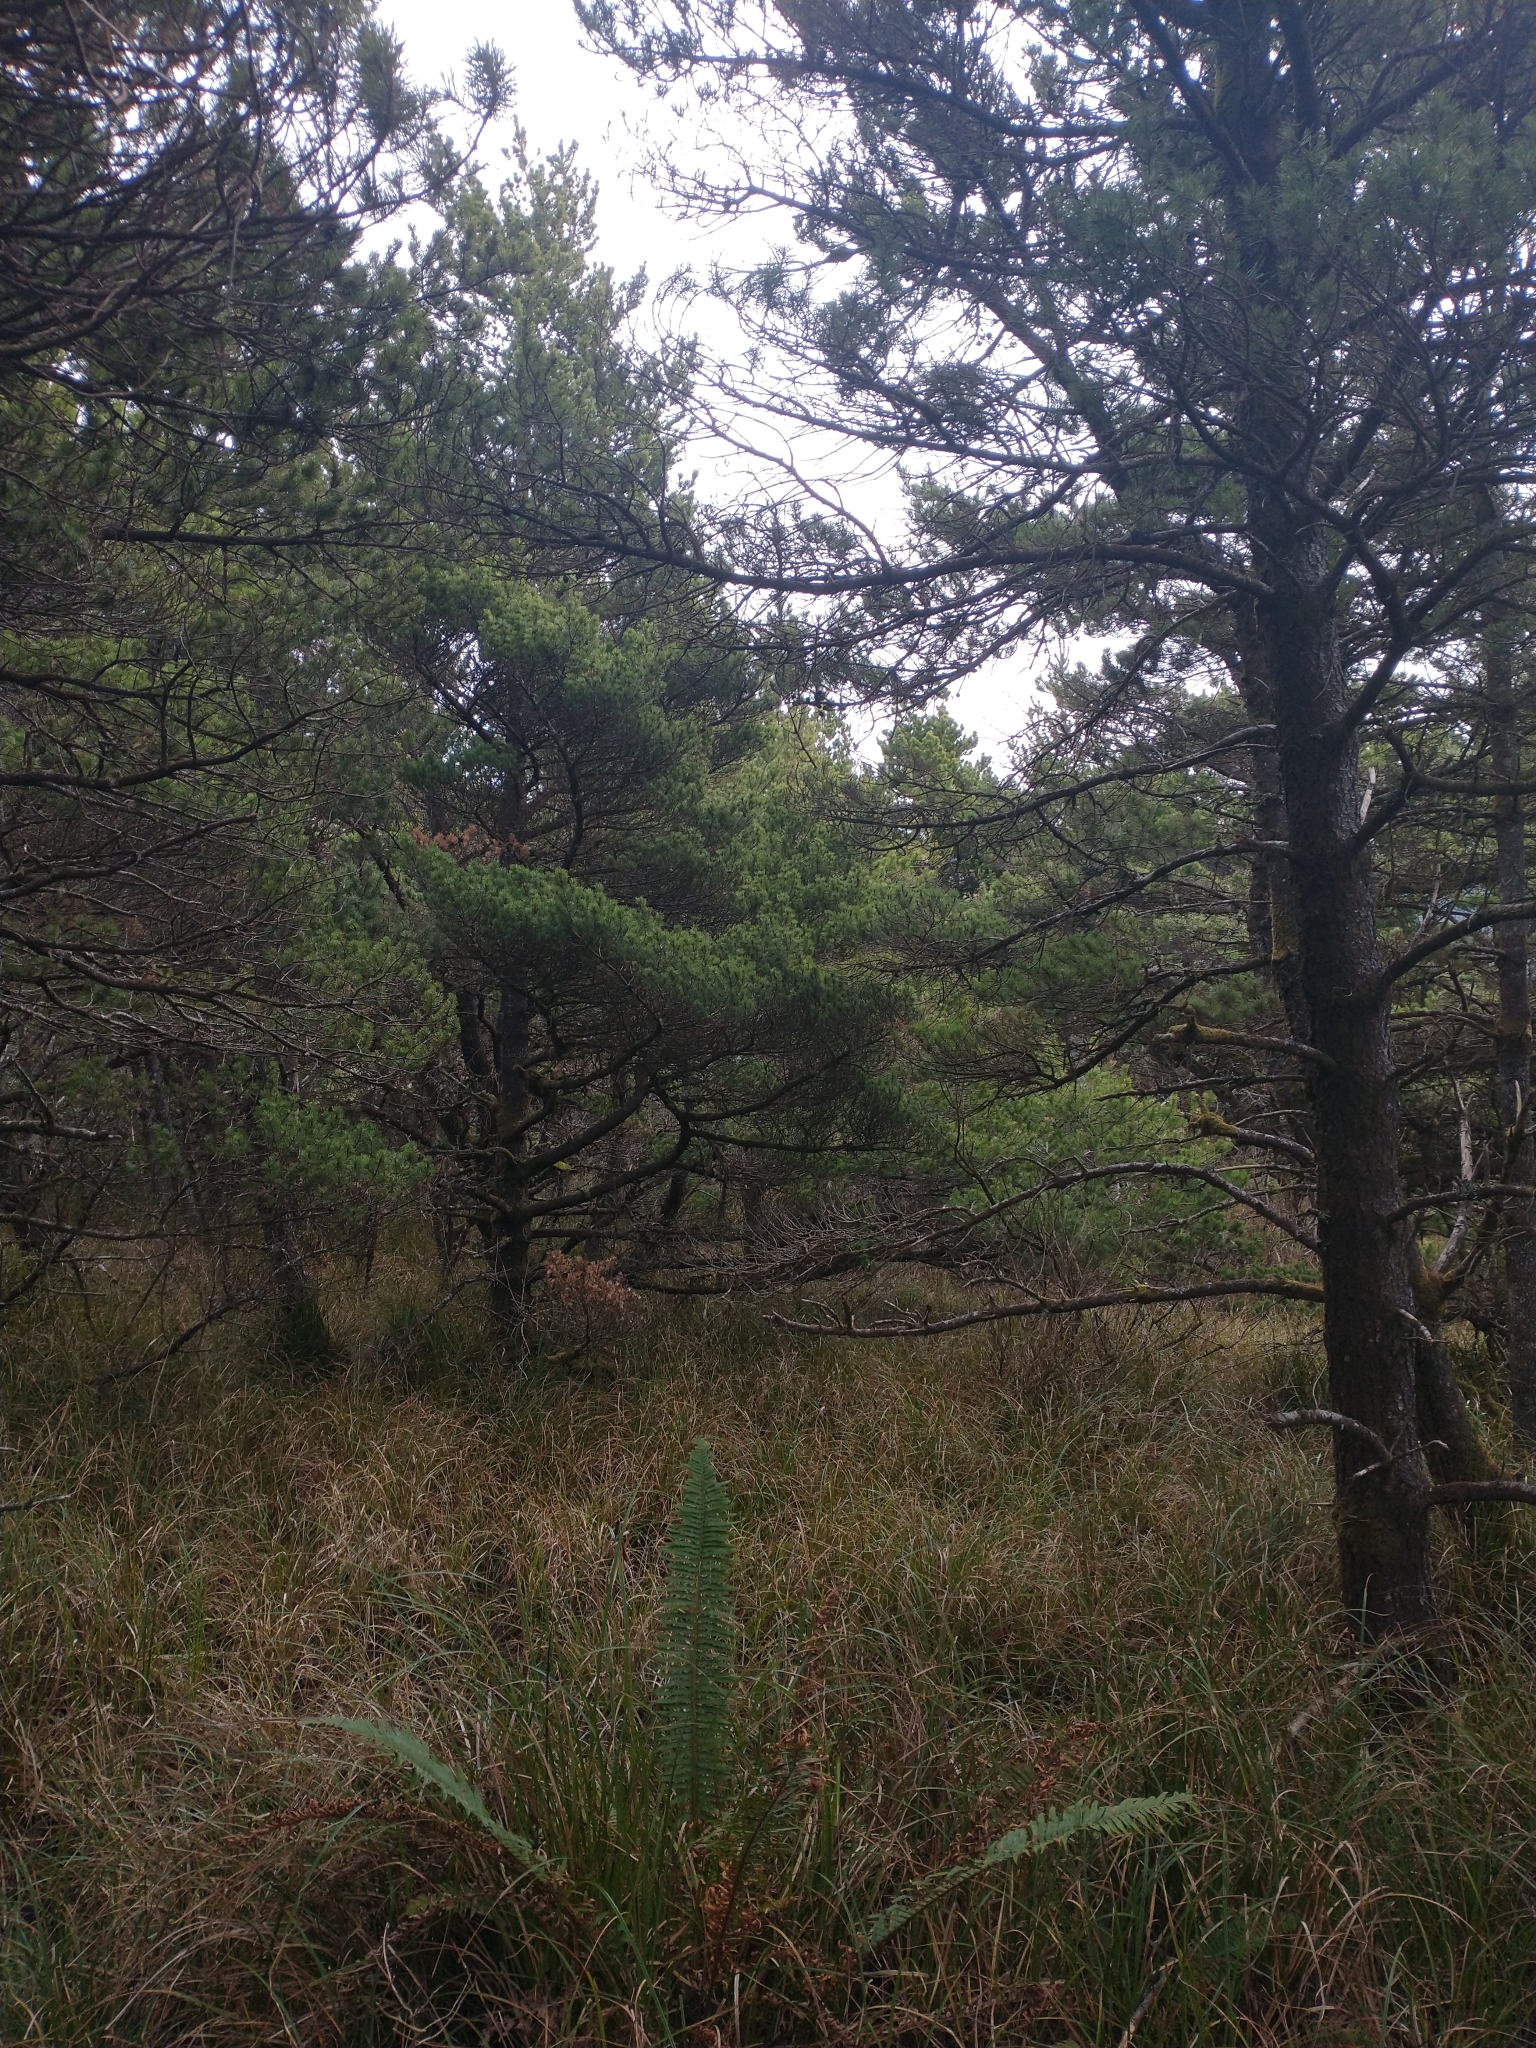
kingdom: Plantae
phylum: Tracheophyta
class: Polypodiopsida
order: Polypodiales
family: Dryopteridaceae
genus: Polystichum
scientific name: Polystichum munitum
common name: Western sword-fern
